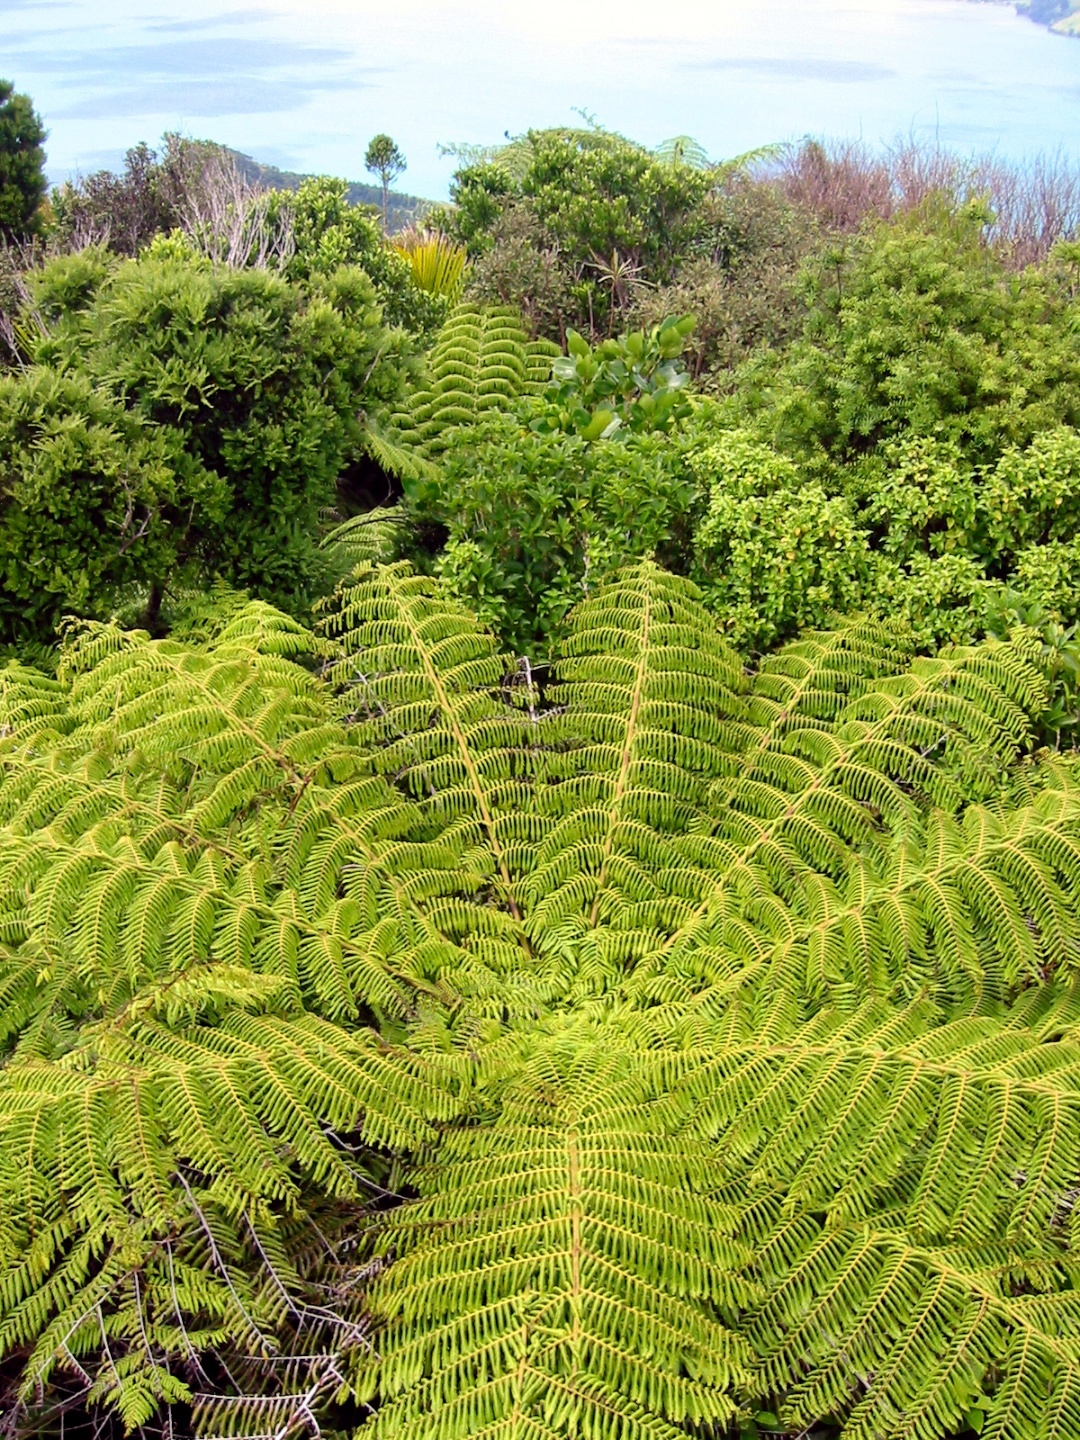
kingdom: Plantae
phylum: Tracheophyta
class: Polypodiopsida
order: Cyatheales
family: Cyatheaceae
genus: Alsophila
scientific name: Alsophila dealbata
